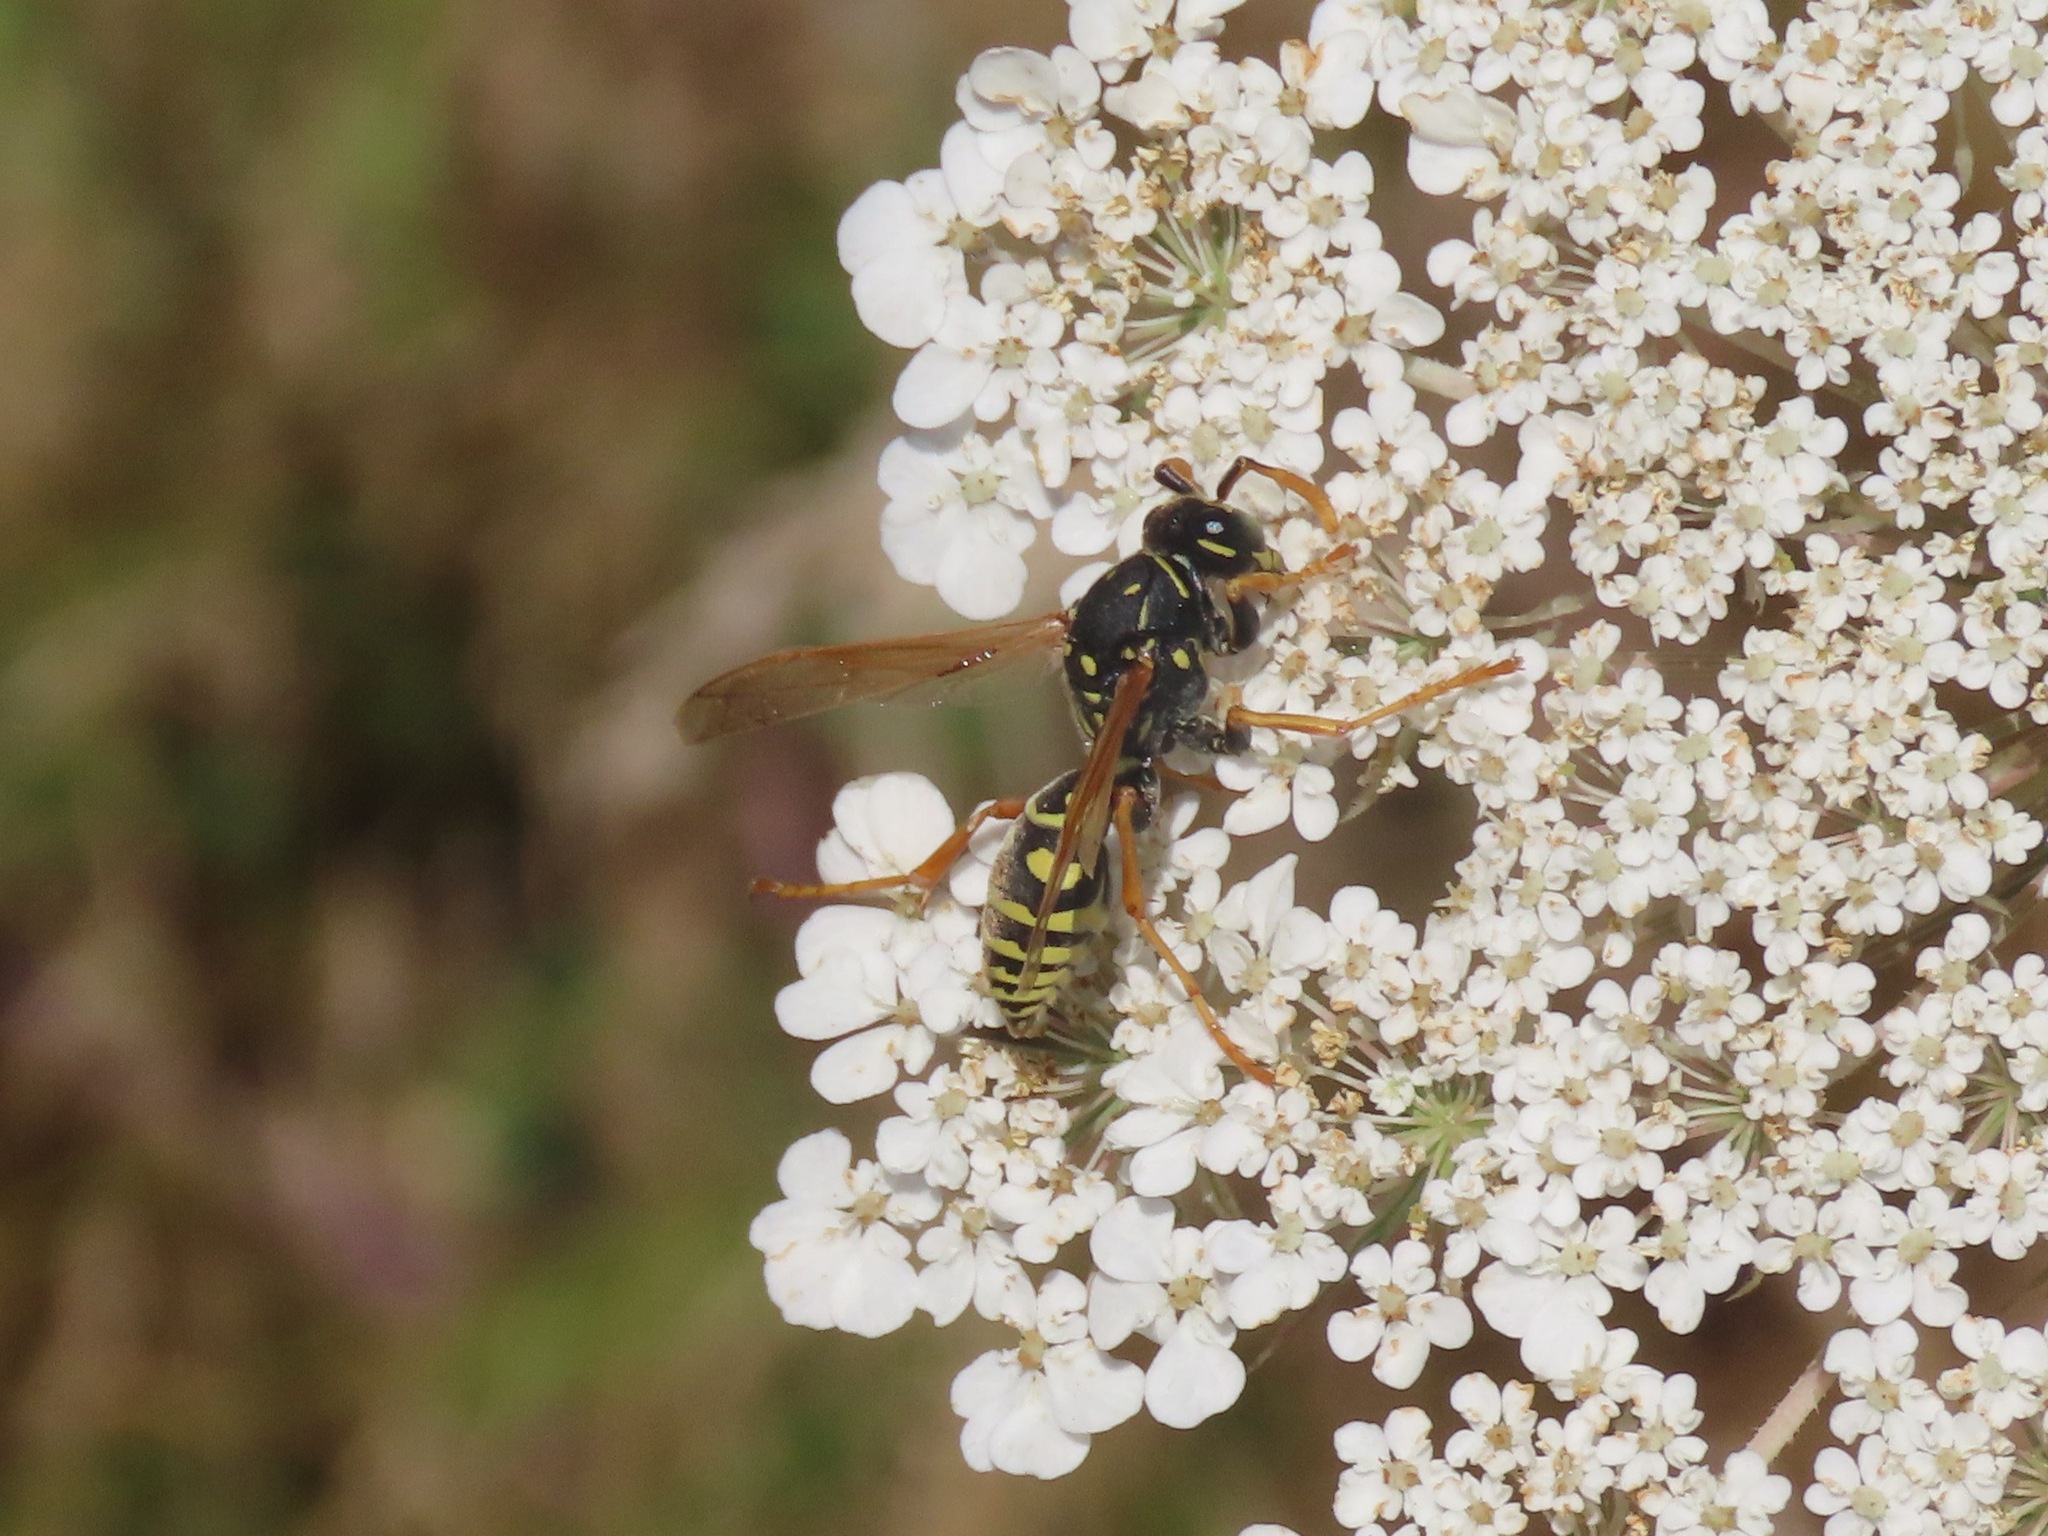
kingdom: Animalia
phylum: Arthropoda
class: Insecta
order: Hymenoptera
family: Eumenidae
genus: Polistes
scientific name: Polistes dominula
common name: Paper wasp
